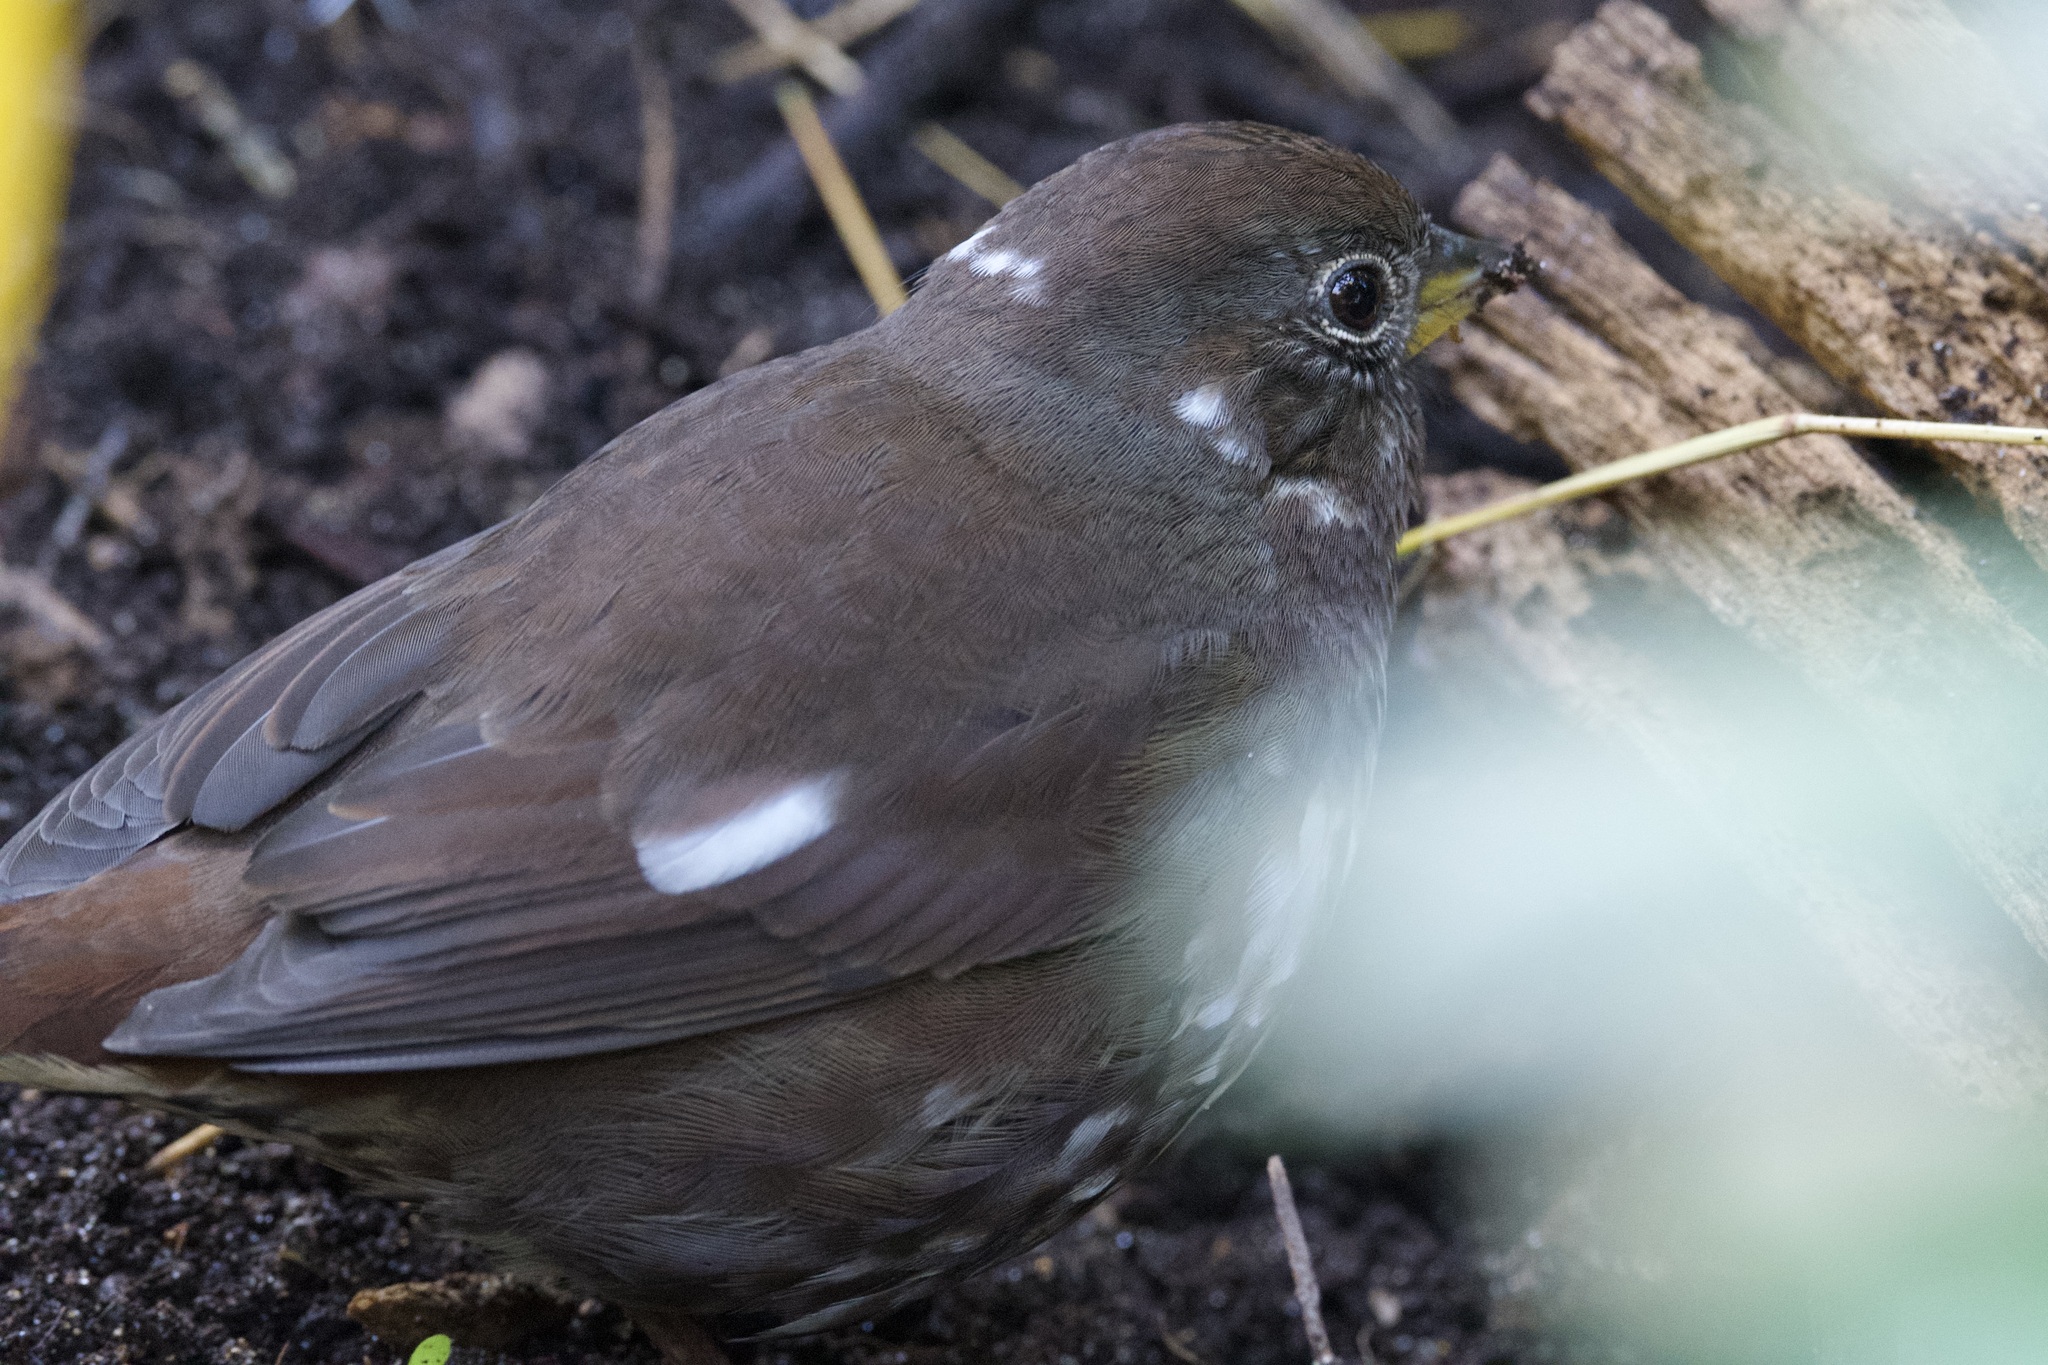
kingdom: Animalia
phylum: Chordata
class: Aves
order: Passeriformes
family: Passerellidae
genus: Passerella
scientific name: Passerella iliaca
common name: Fox sparrow
